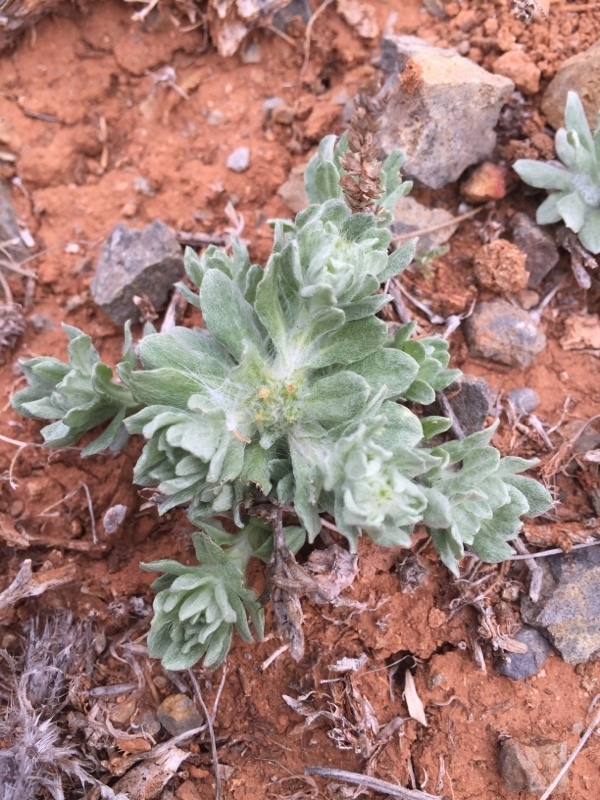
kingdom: Plantae
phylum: Tracheophyta
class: Magnoliopsida
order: Asterales
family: Asteraceae
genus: Filago
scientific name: Filago pyramidata
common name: Broad-leaved cudweed
